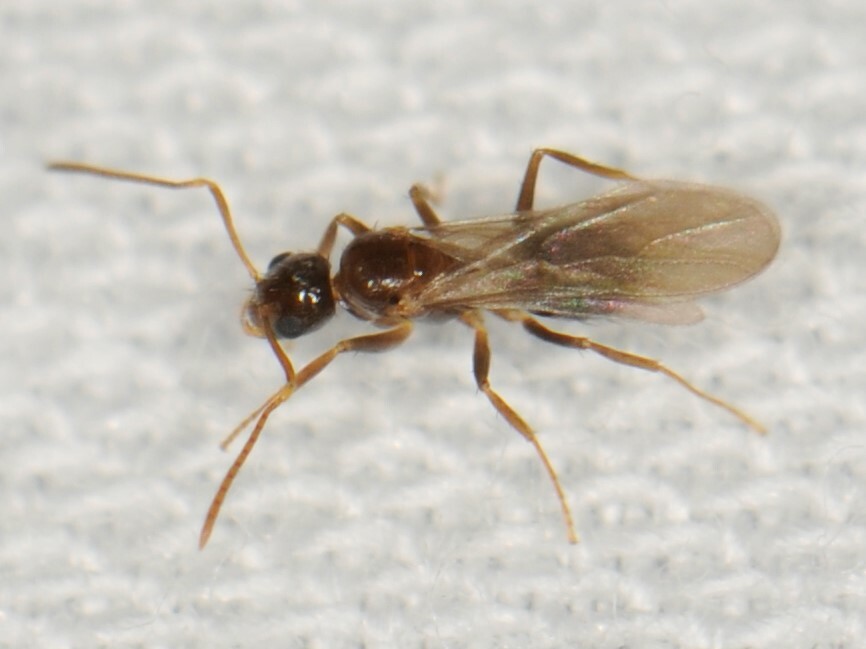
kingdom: Animalia
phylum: Arthropoda
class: Insecta
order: Hymenoptera
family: Formicidae
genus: Nylanderia
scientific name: Nylanderia
